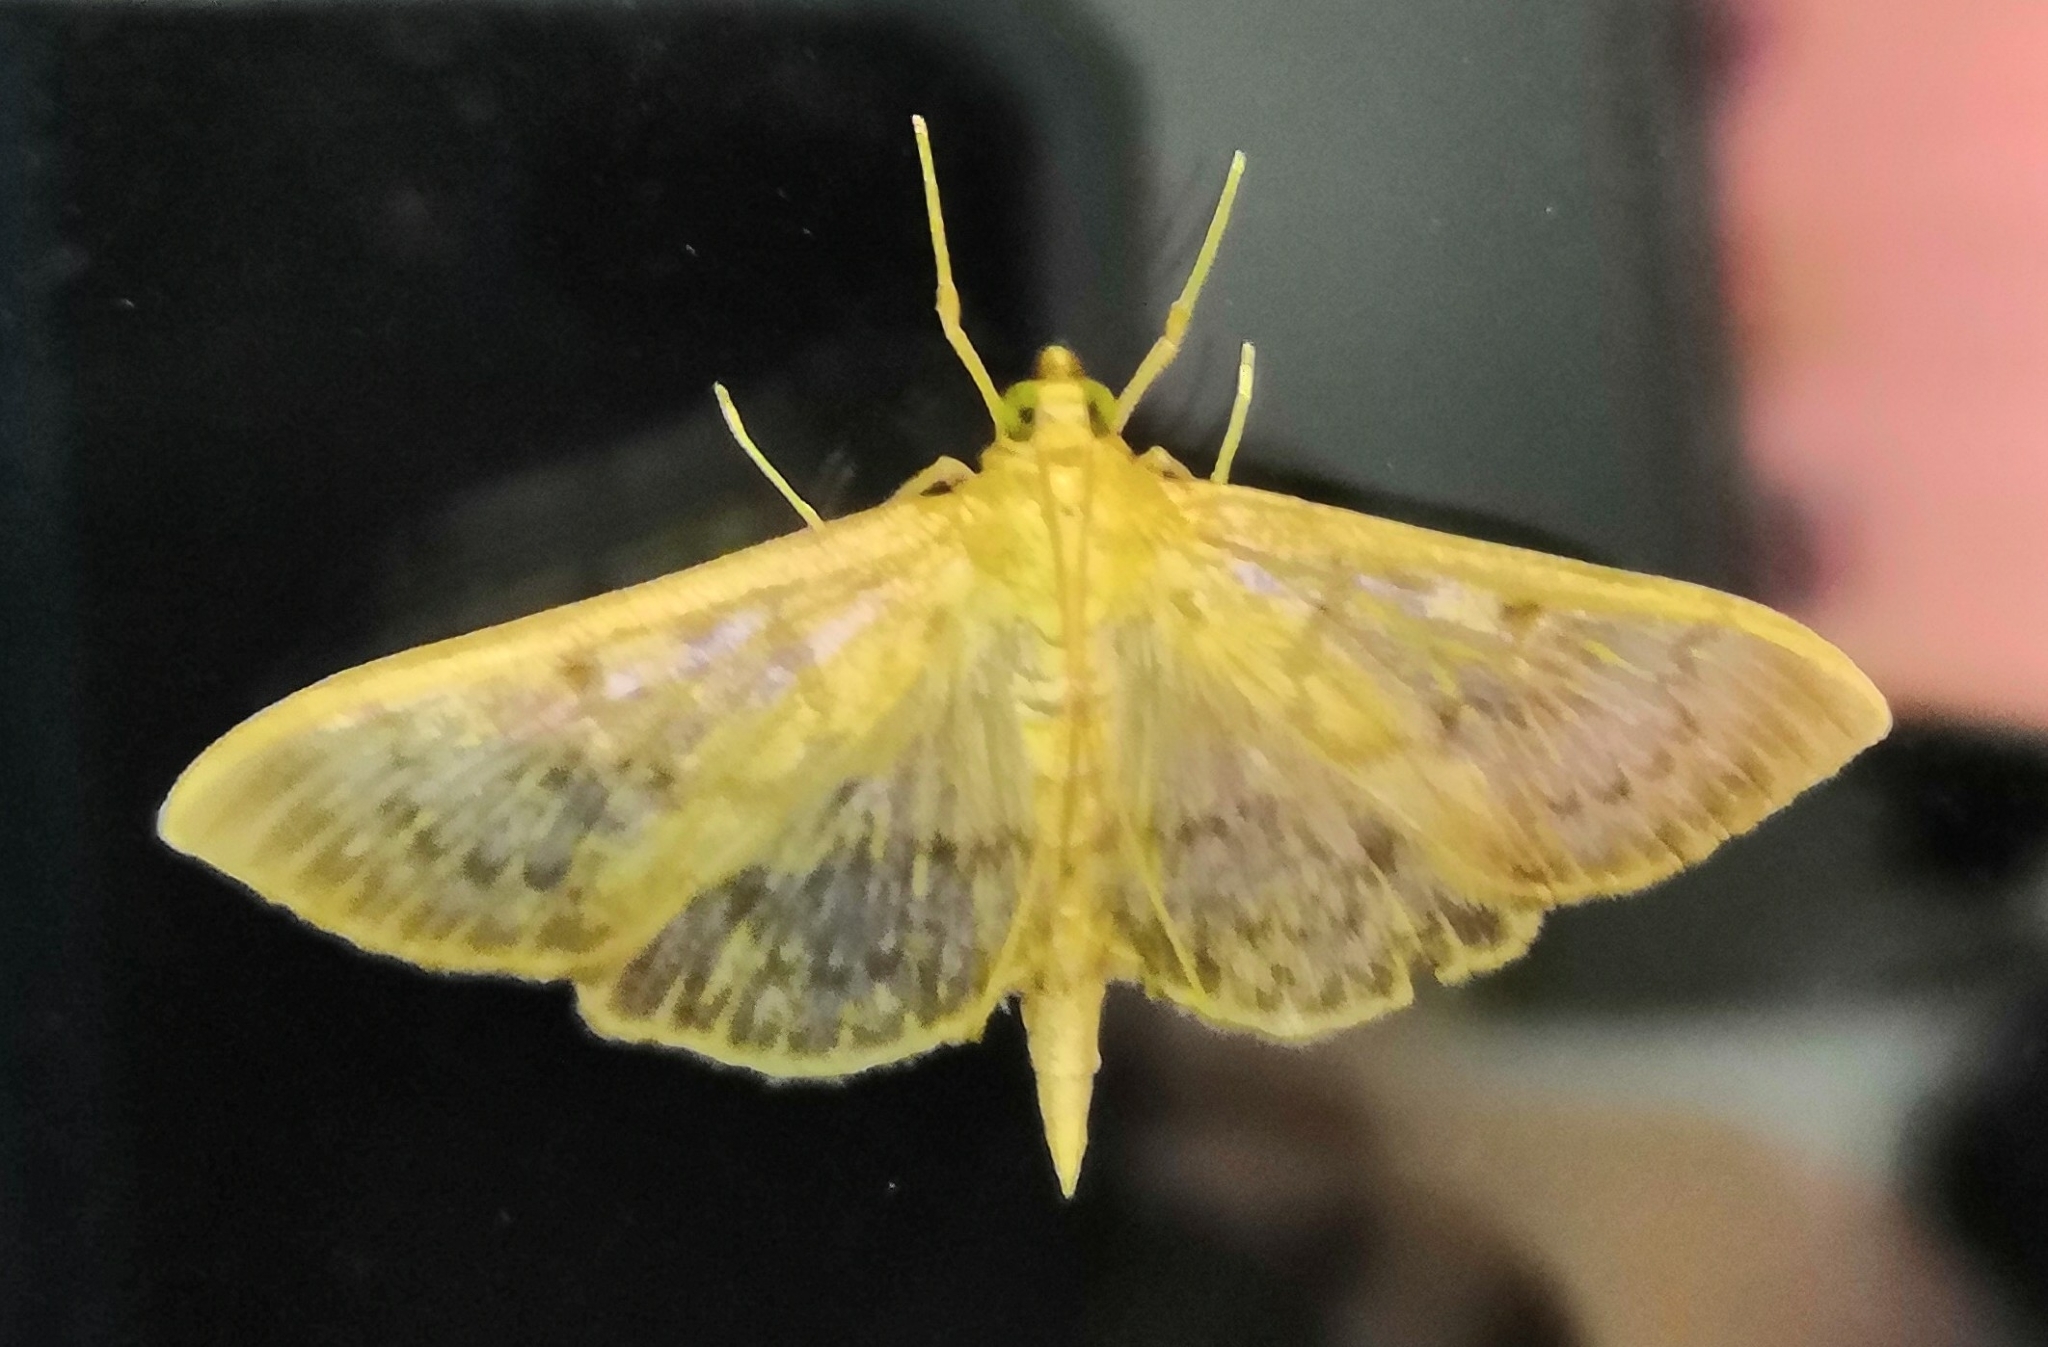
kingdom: Animalia
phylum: Arthropoda
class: Insecta
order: Lepidoptera
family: Crambidae
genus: Patania
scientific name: Patania ruralis
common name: Mother of pearl
